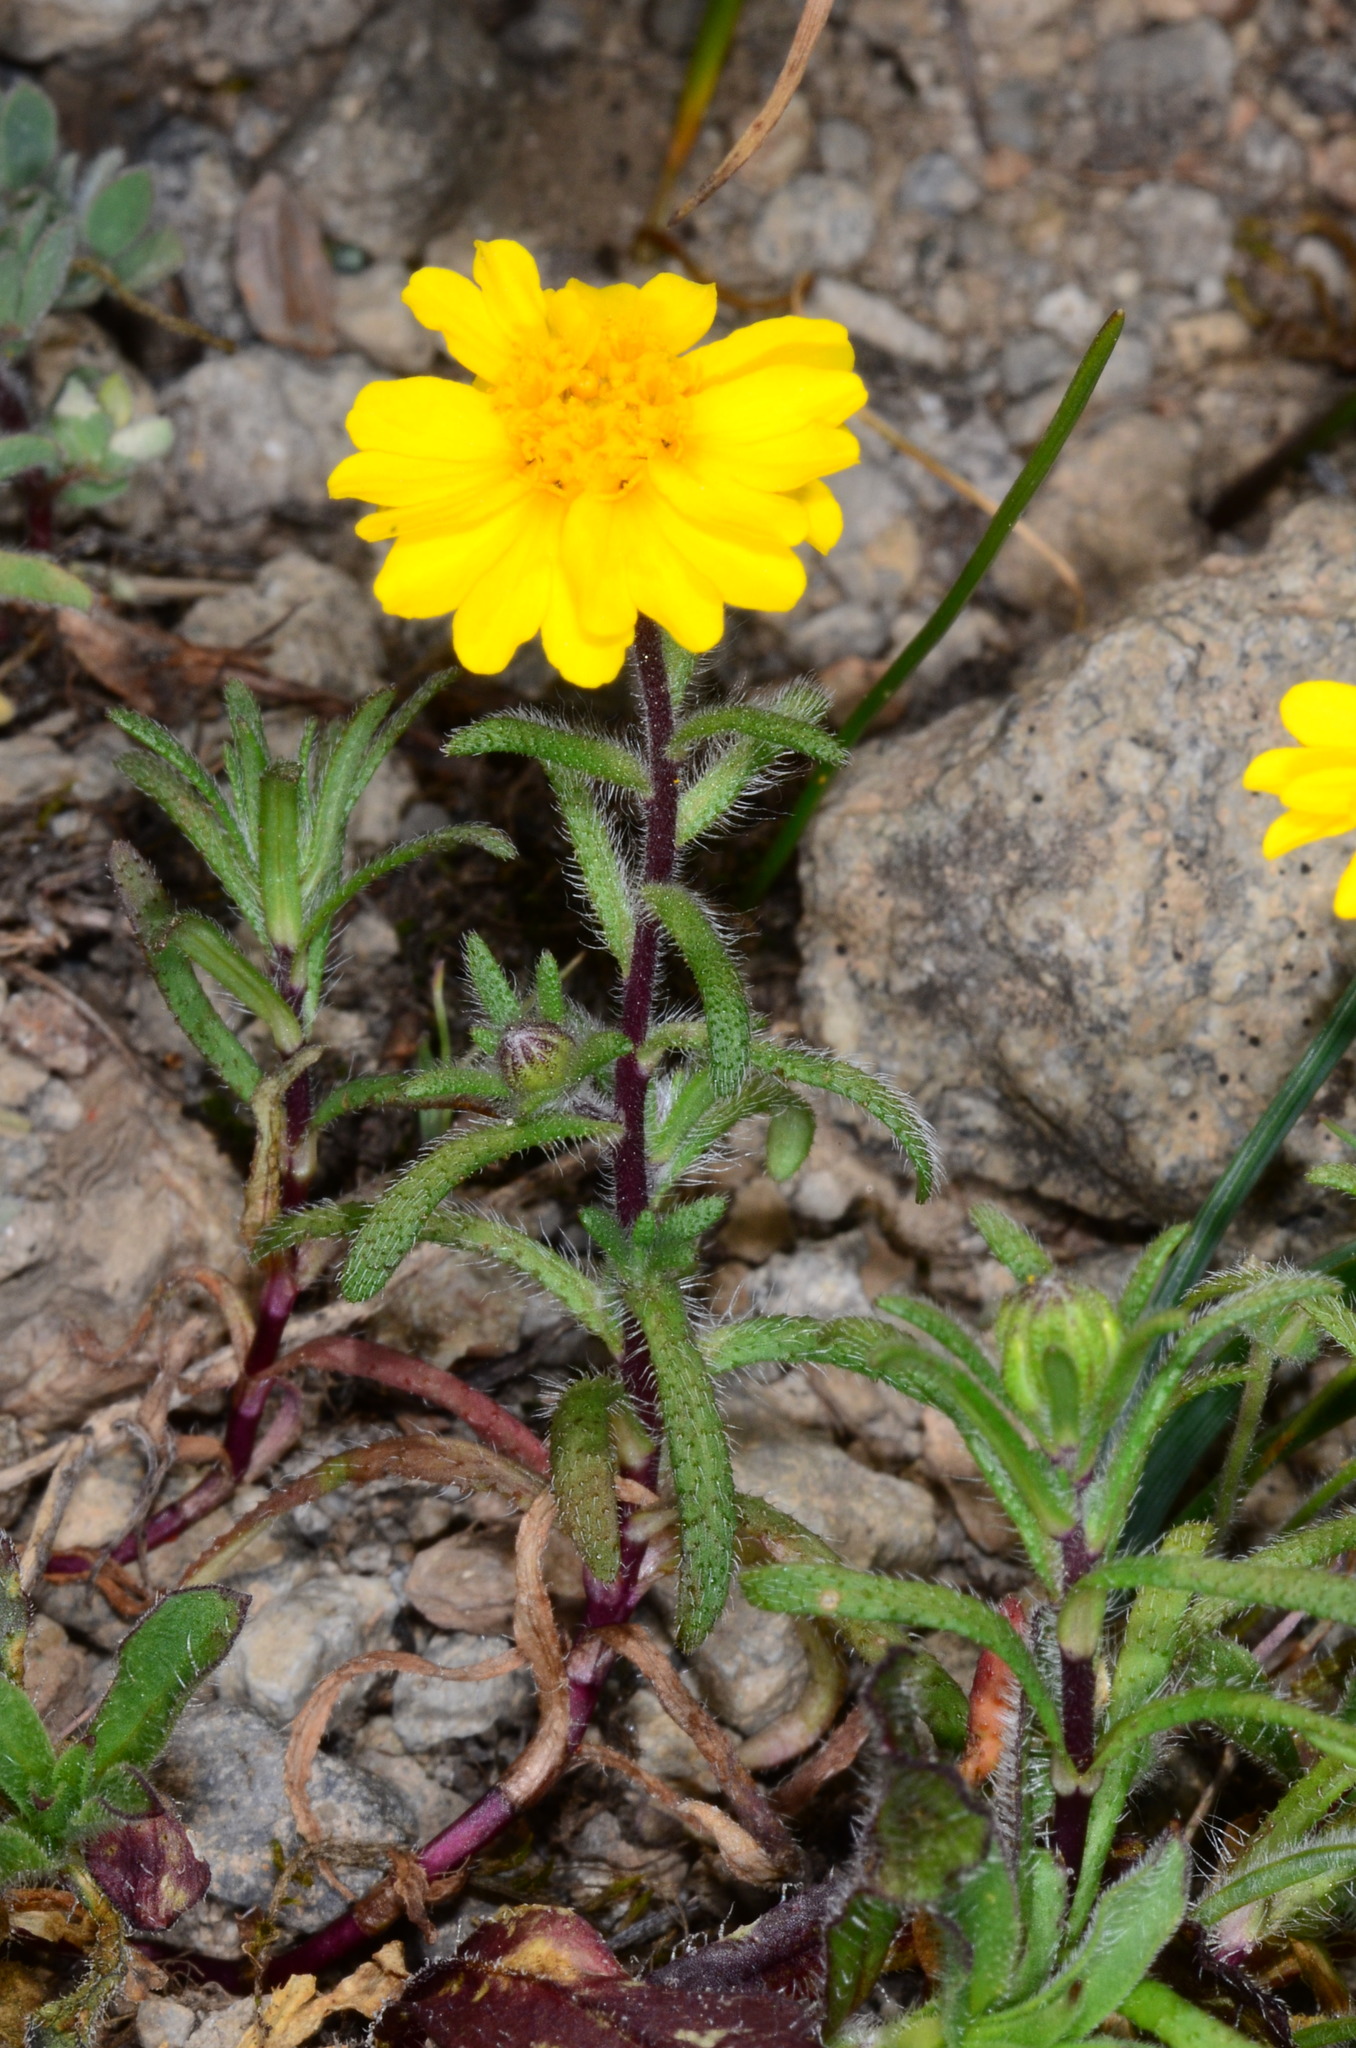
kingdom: Plantae
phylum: Tracheophyta
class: Magnoliopsida
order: Asterales
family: Asteraceae
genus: Harmonia
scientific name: Harmonia nutans
